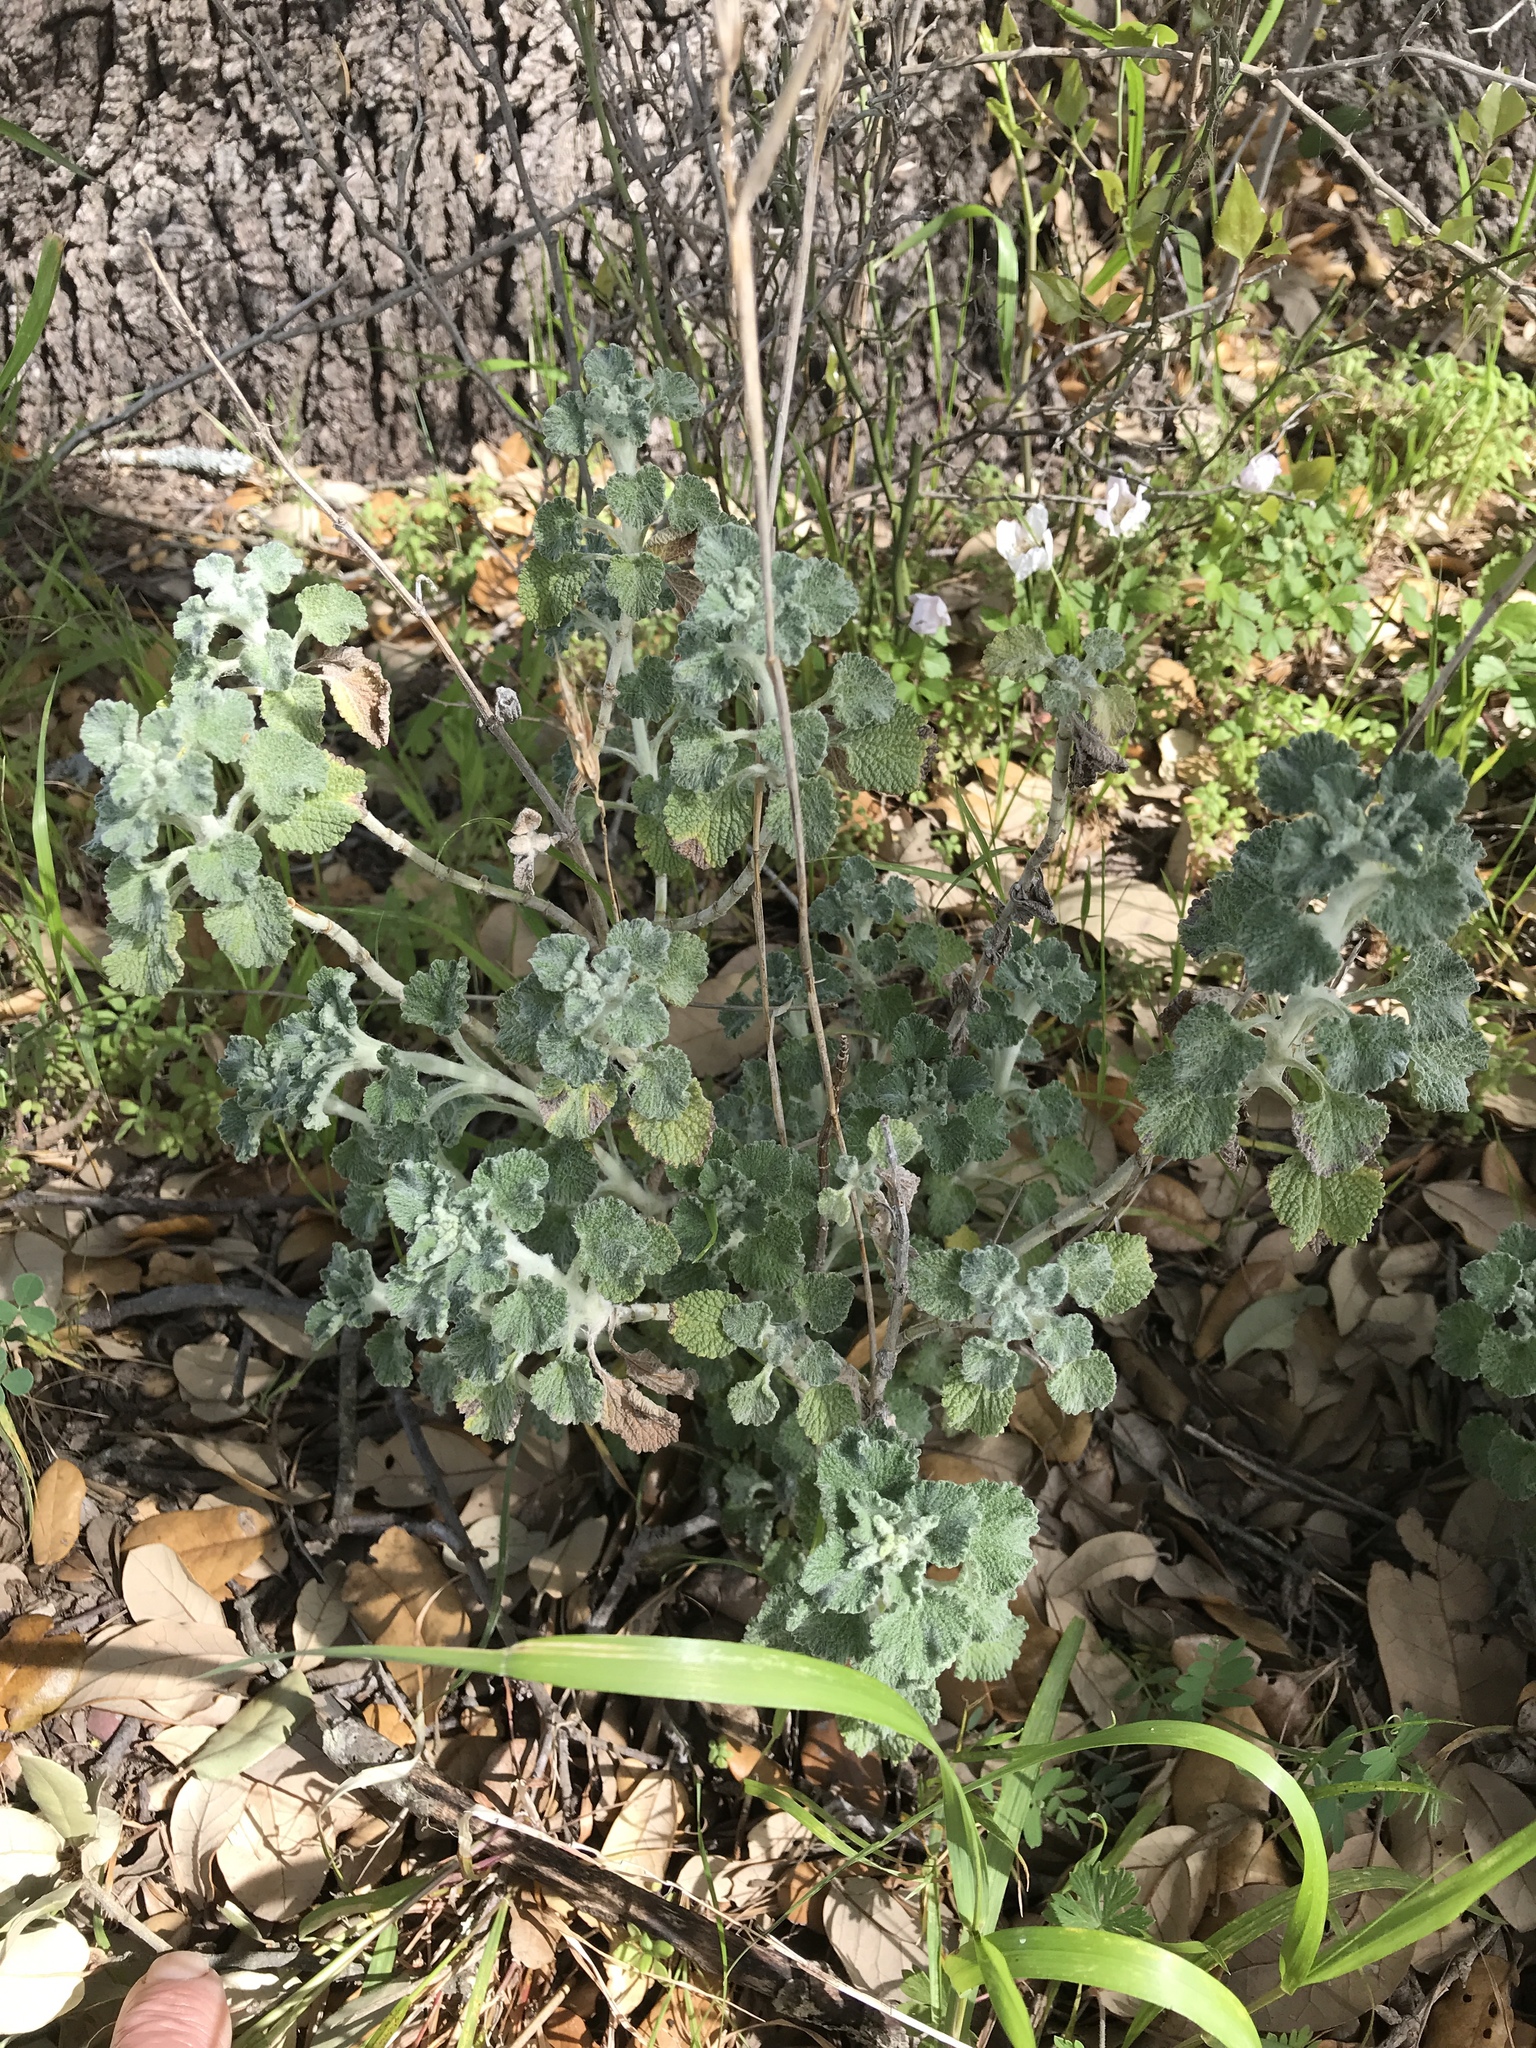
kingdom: Plantae
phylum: Tracheophyta
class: Magnoliopsida
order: Lamiales
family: Lamiaceae
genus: Marrubium
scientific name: Marrubium vulgare
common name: Horehound
